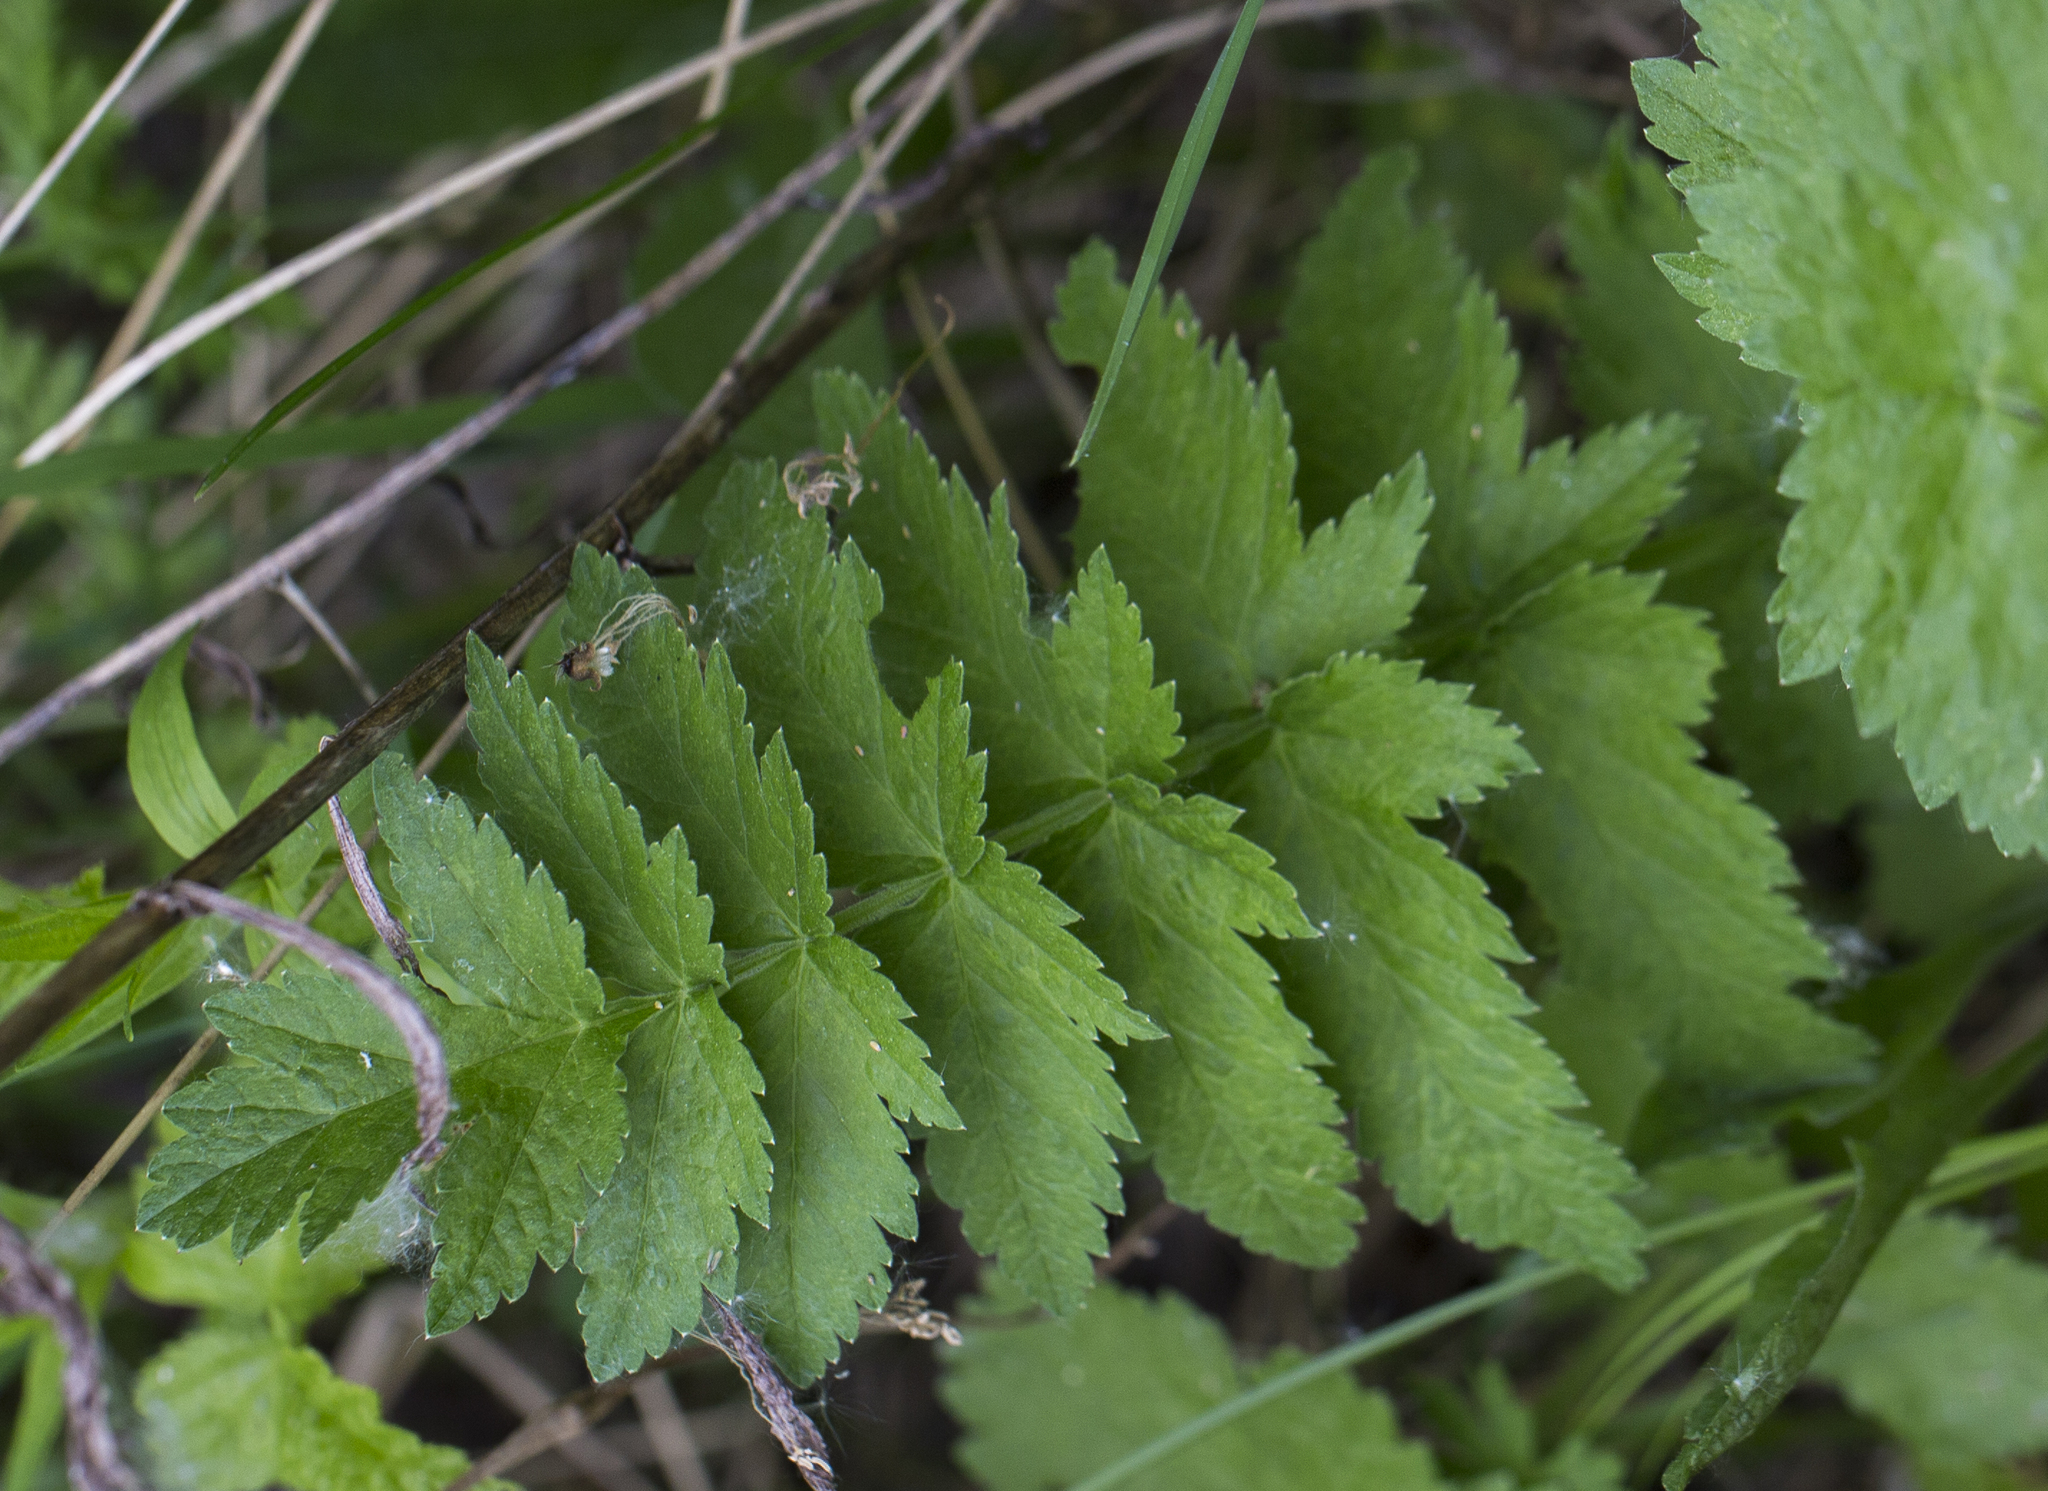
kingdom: Plantae
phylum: Tracheophyta
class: Magnoliopsida
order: Apiales
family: Apiaceae
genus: Pastinaca
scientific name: Pastinaca sativa
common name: Wild parsnip
